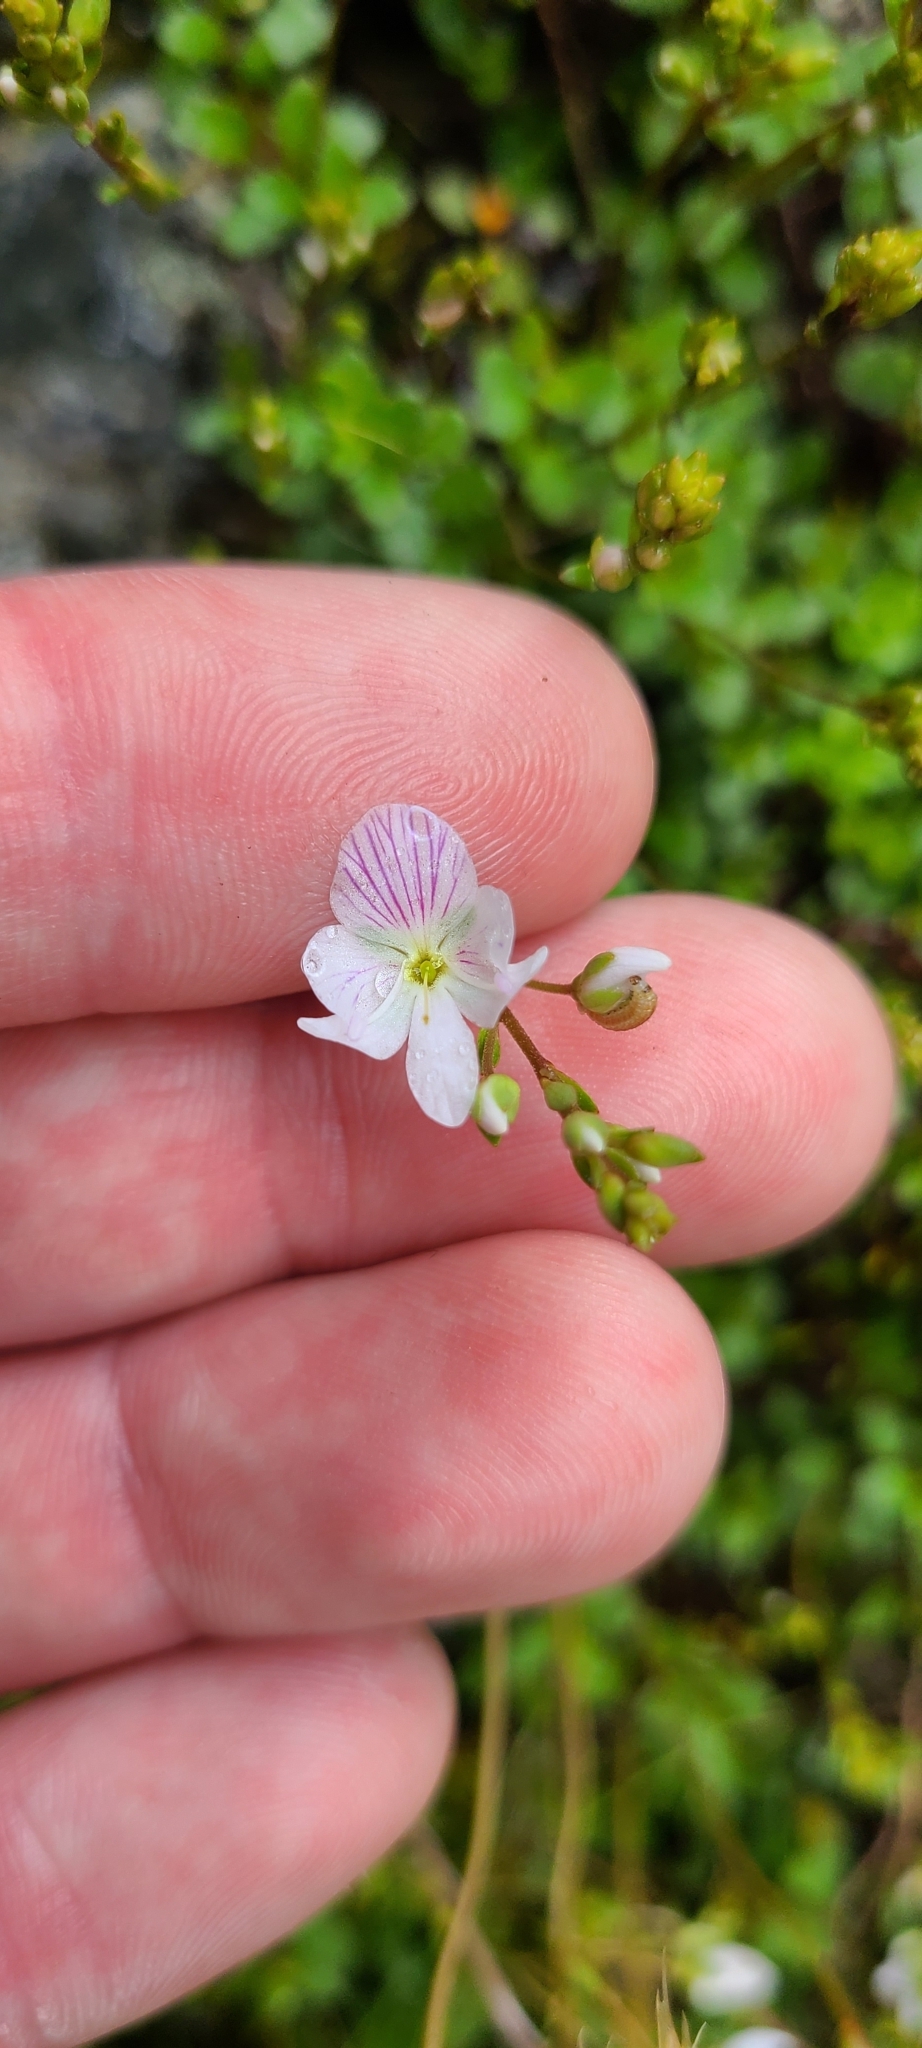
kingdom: Plantae
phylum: Tracheophyta
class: Magnoliopsida
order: Lamiales
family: Plantaginaceae
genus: Veronica
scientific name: Veronica lyallii
